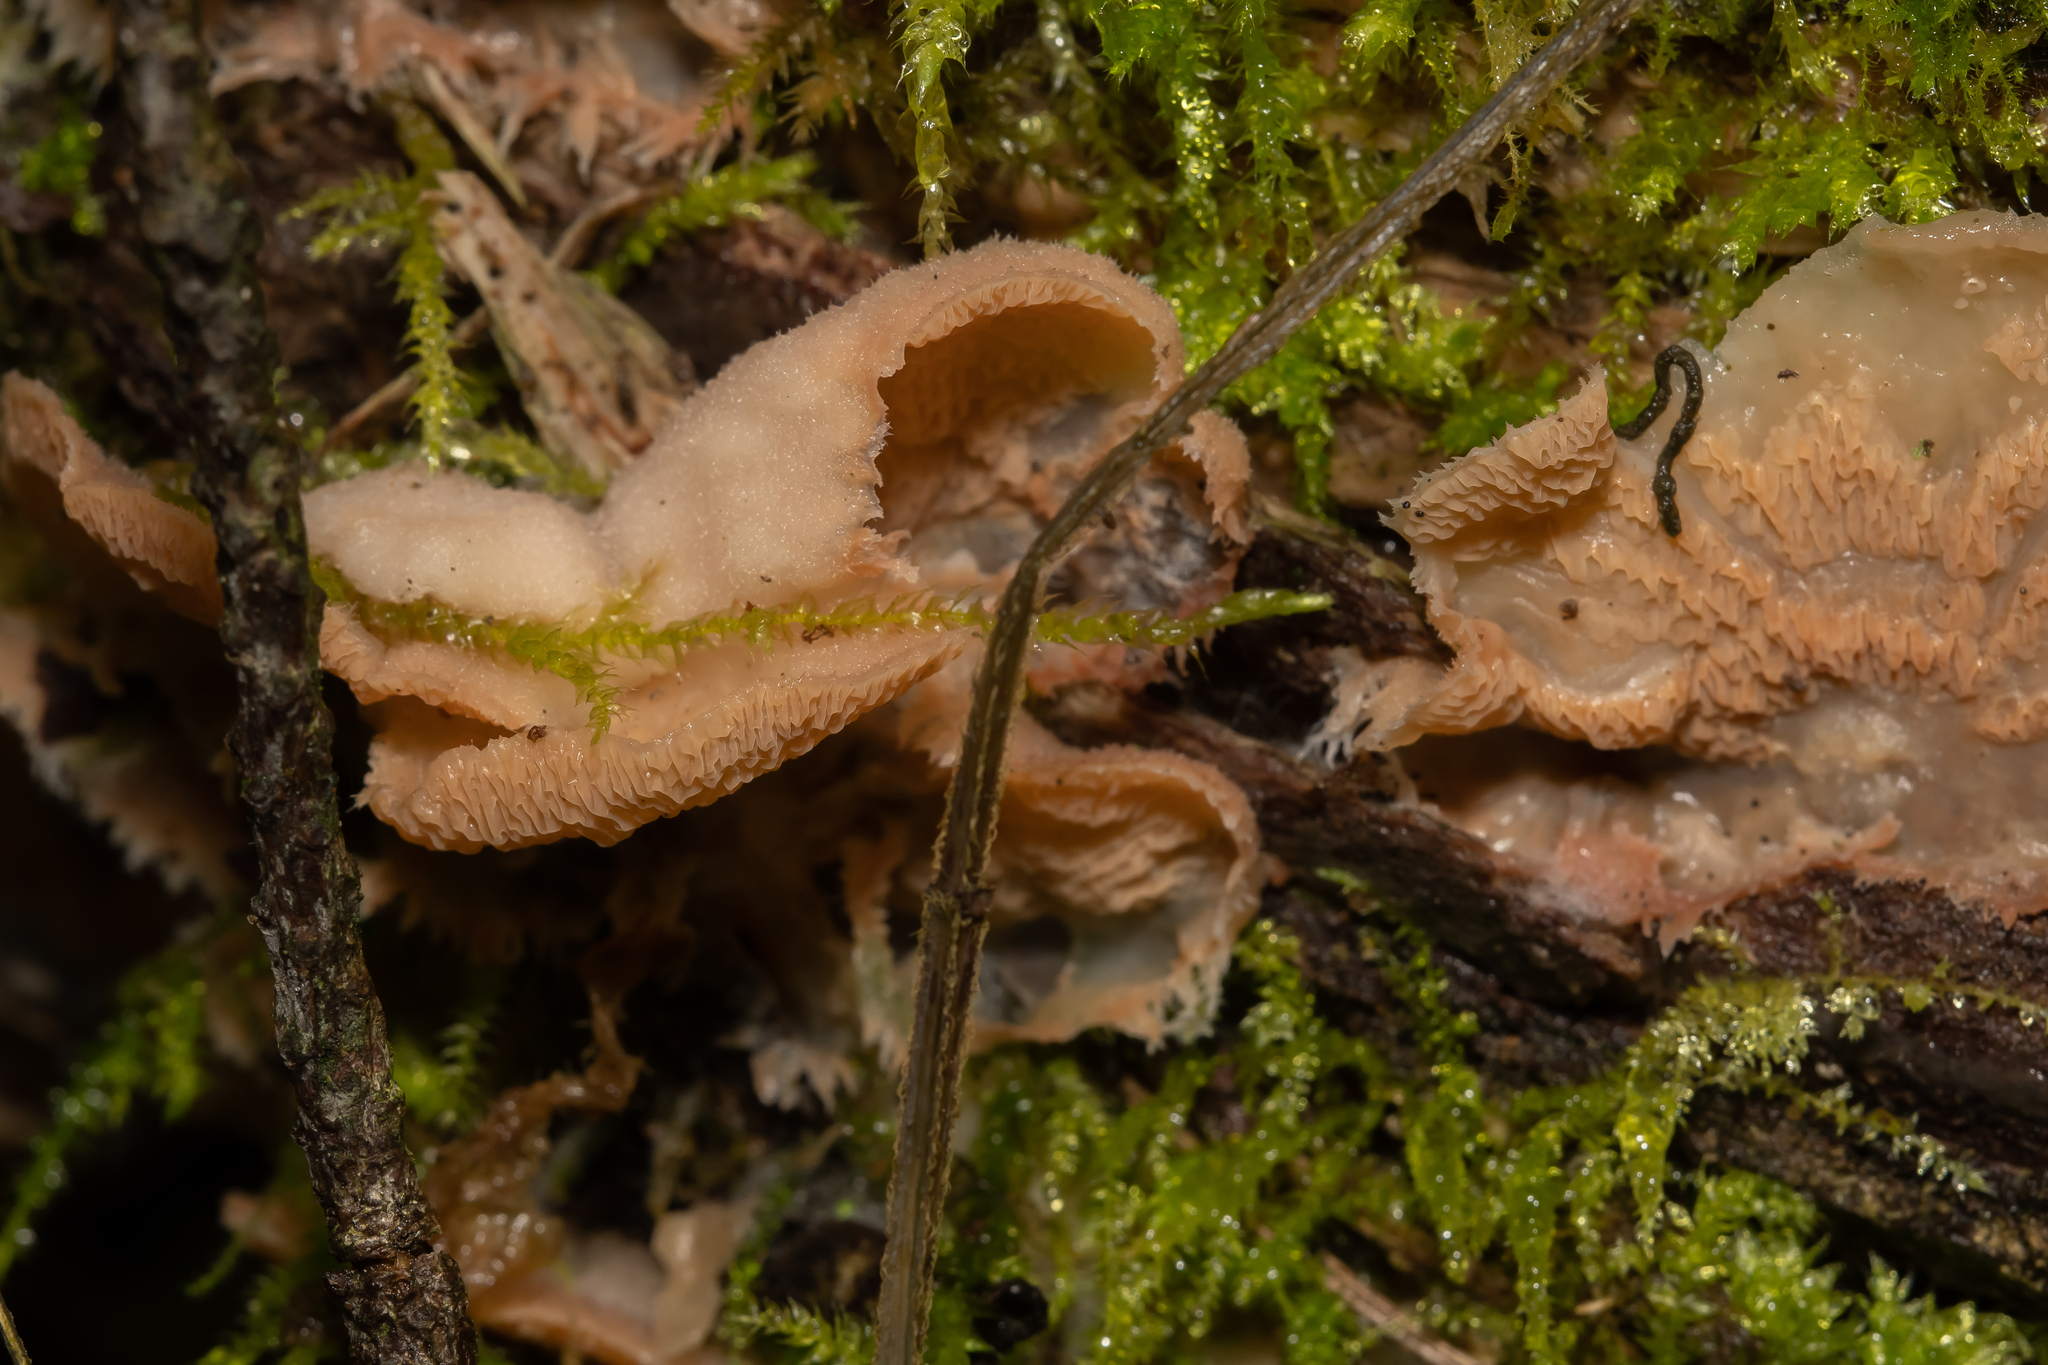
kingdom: Fungi
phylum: Basidiomycota
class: Agaricomycetes
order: Polyporales
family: Meruliaceae
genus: Phlebia
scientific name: Phlebia tremellosa
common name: Jelly rot
